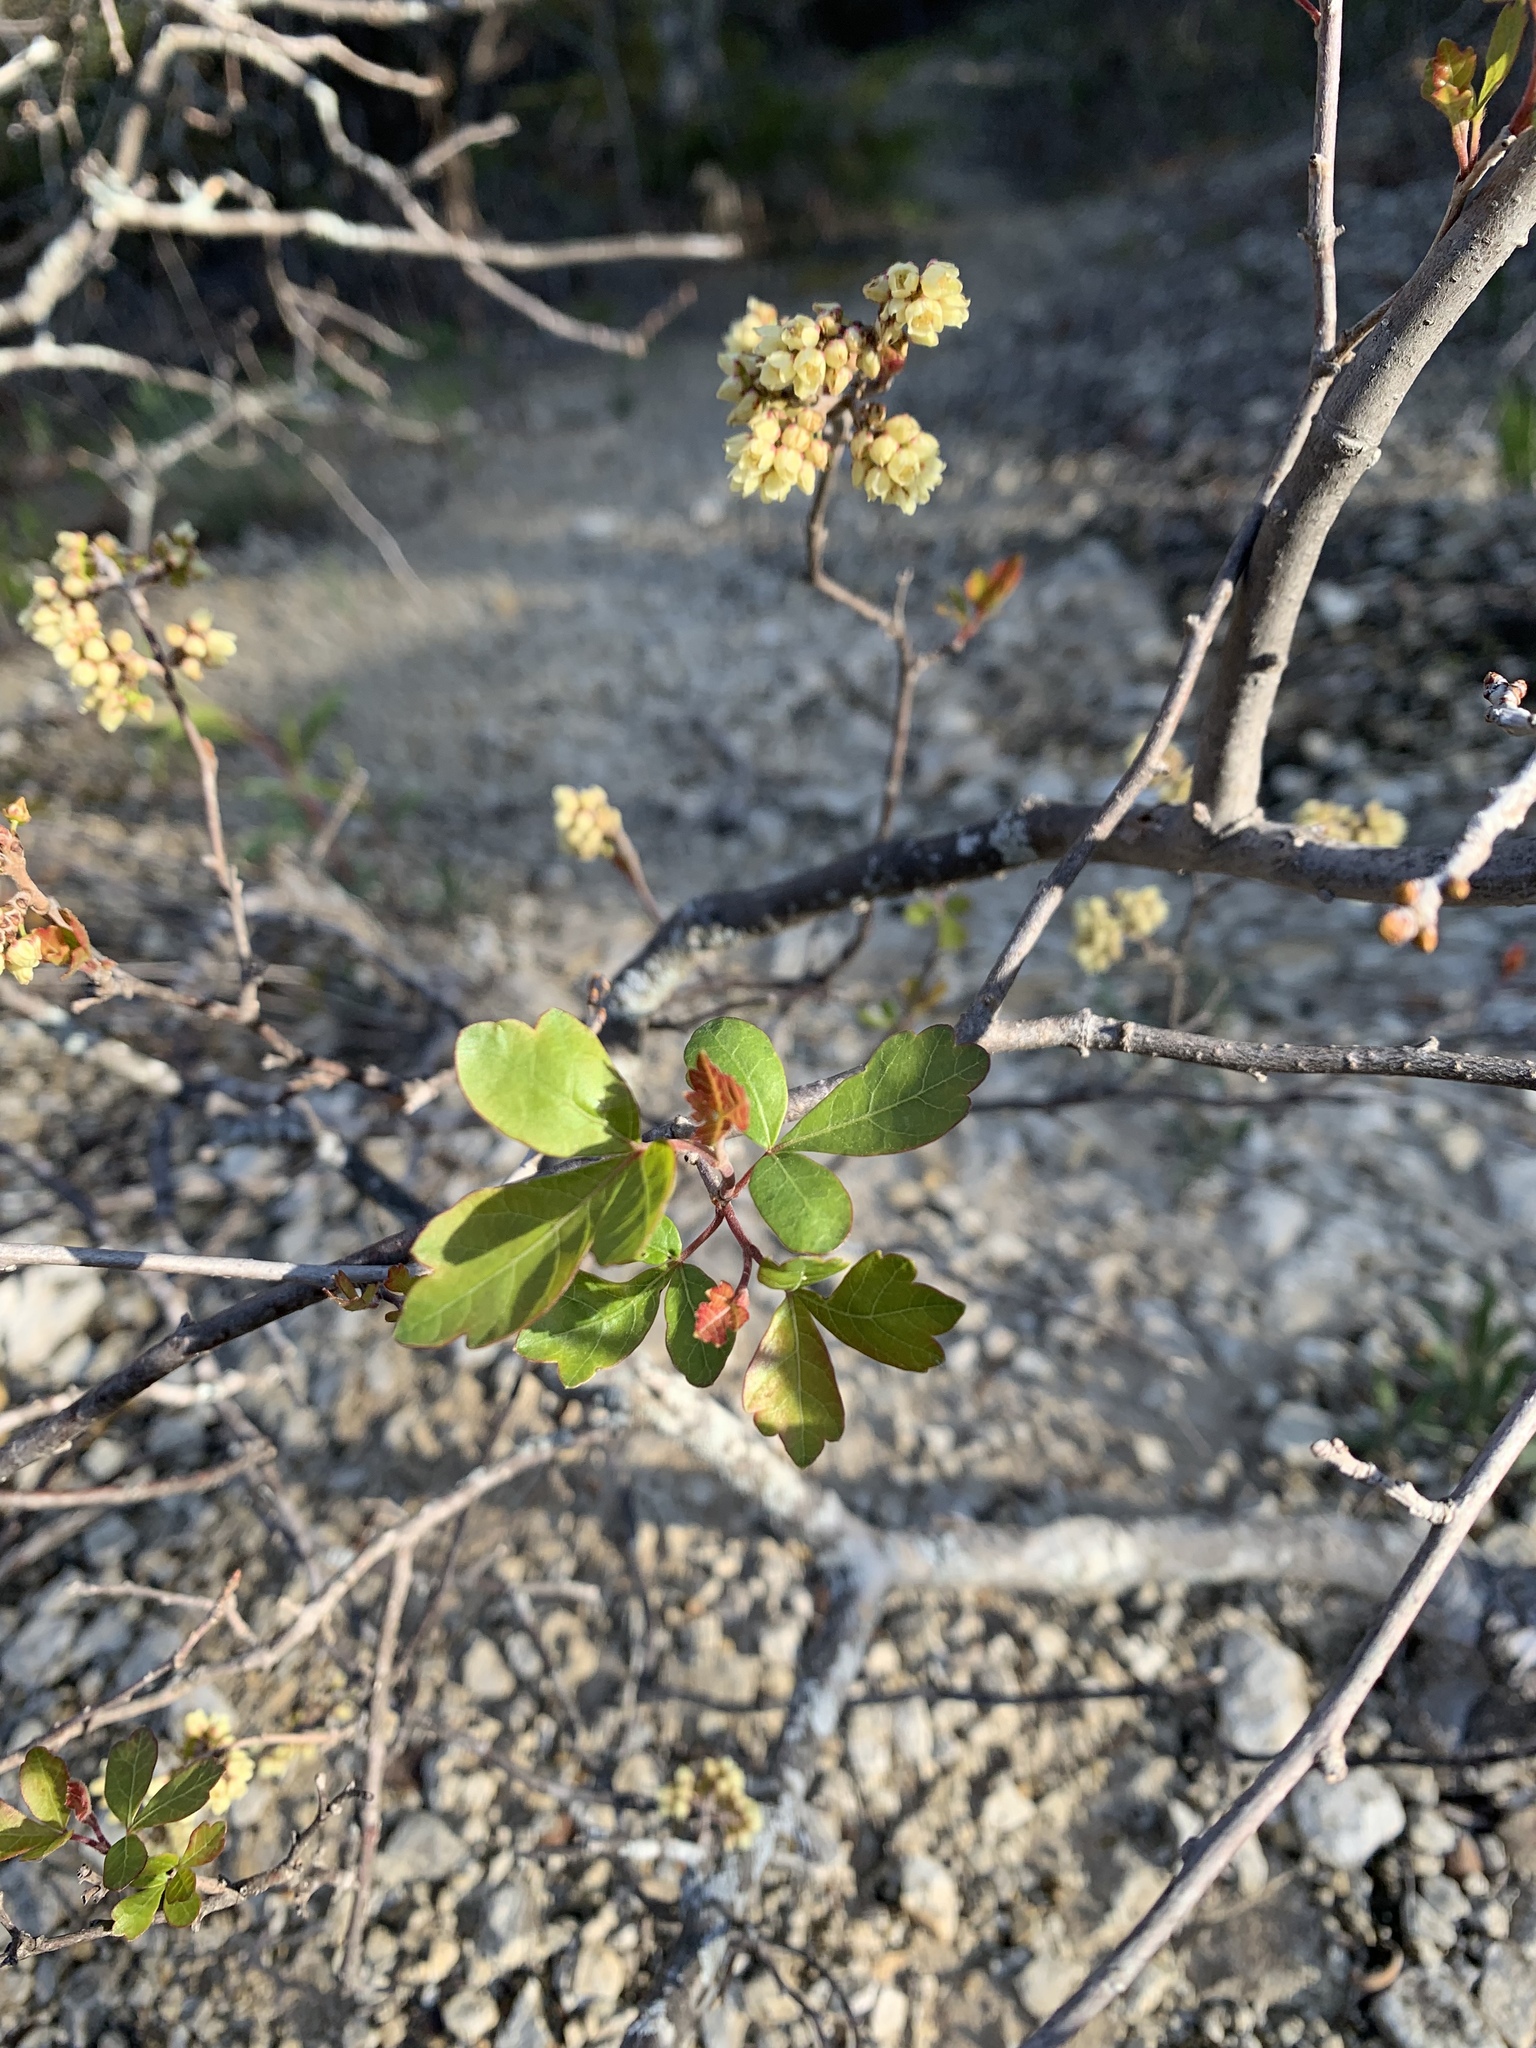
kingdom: Plantae
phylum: Tracheophyta
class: Magnoliopsida
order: Sapindales
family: Anacardiaceae
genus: Rhus
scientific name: Rhus trilobata
